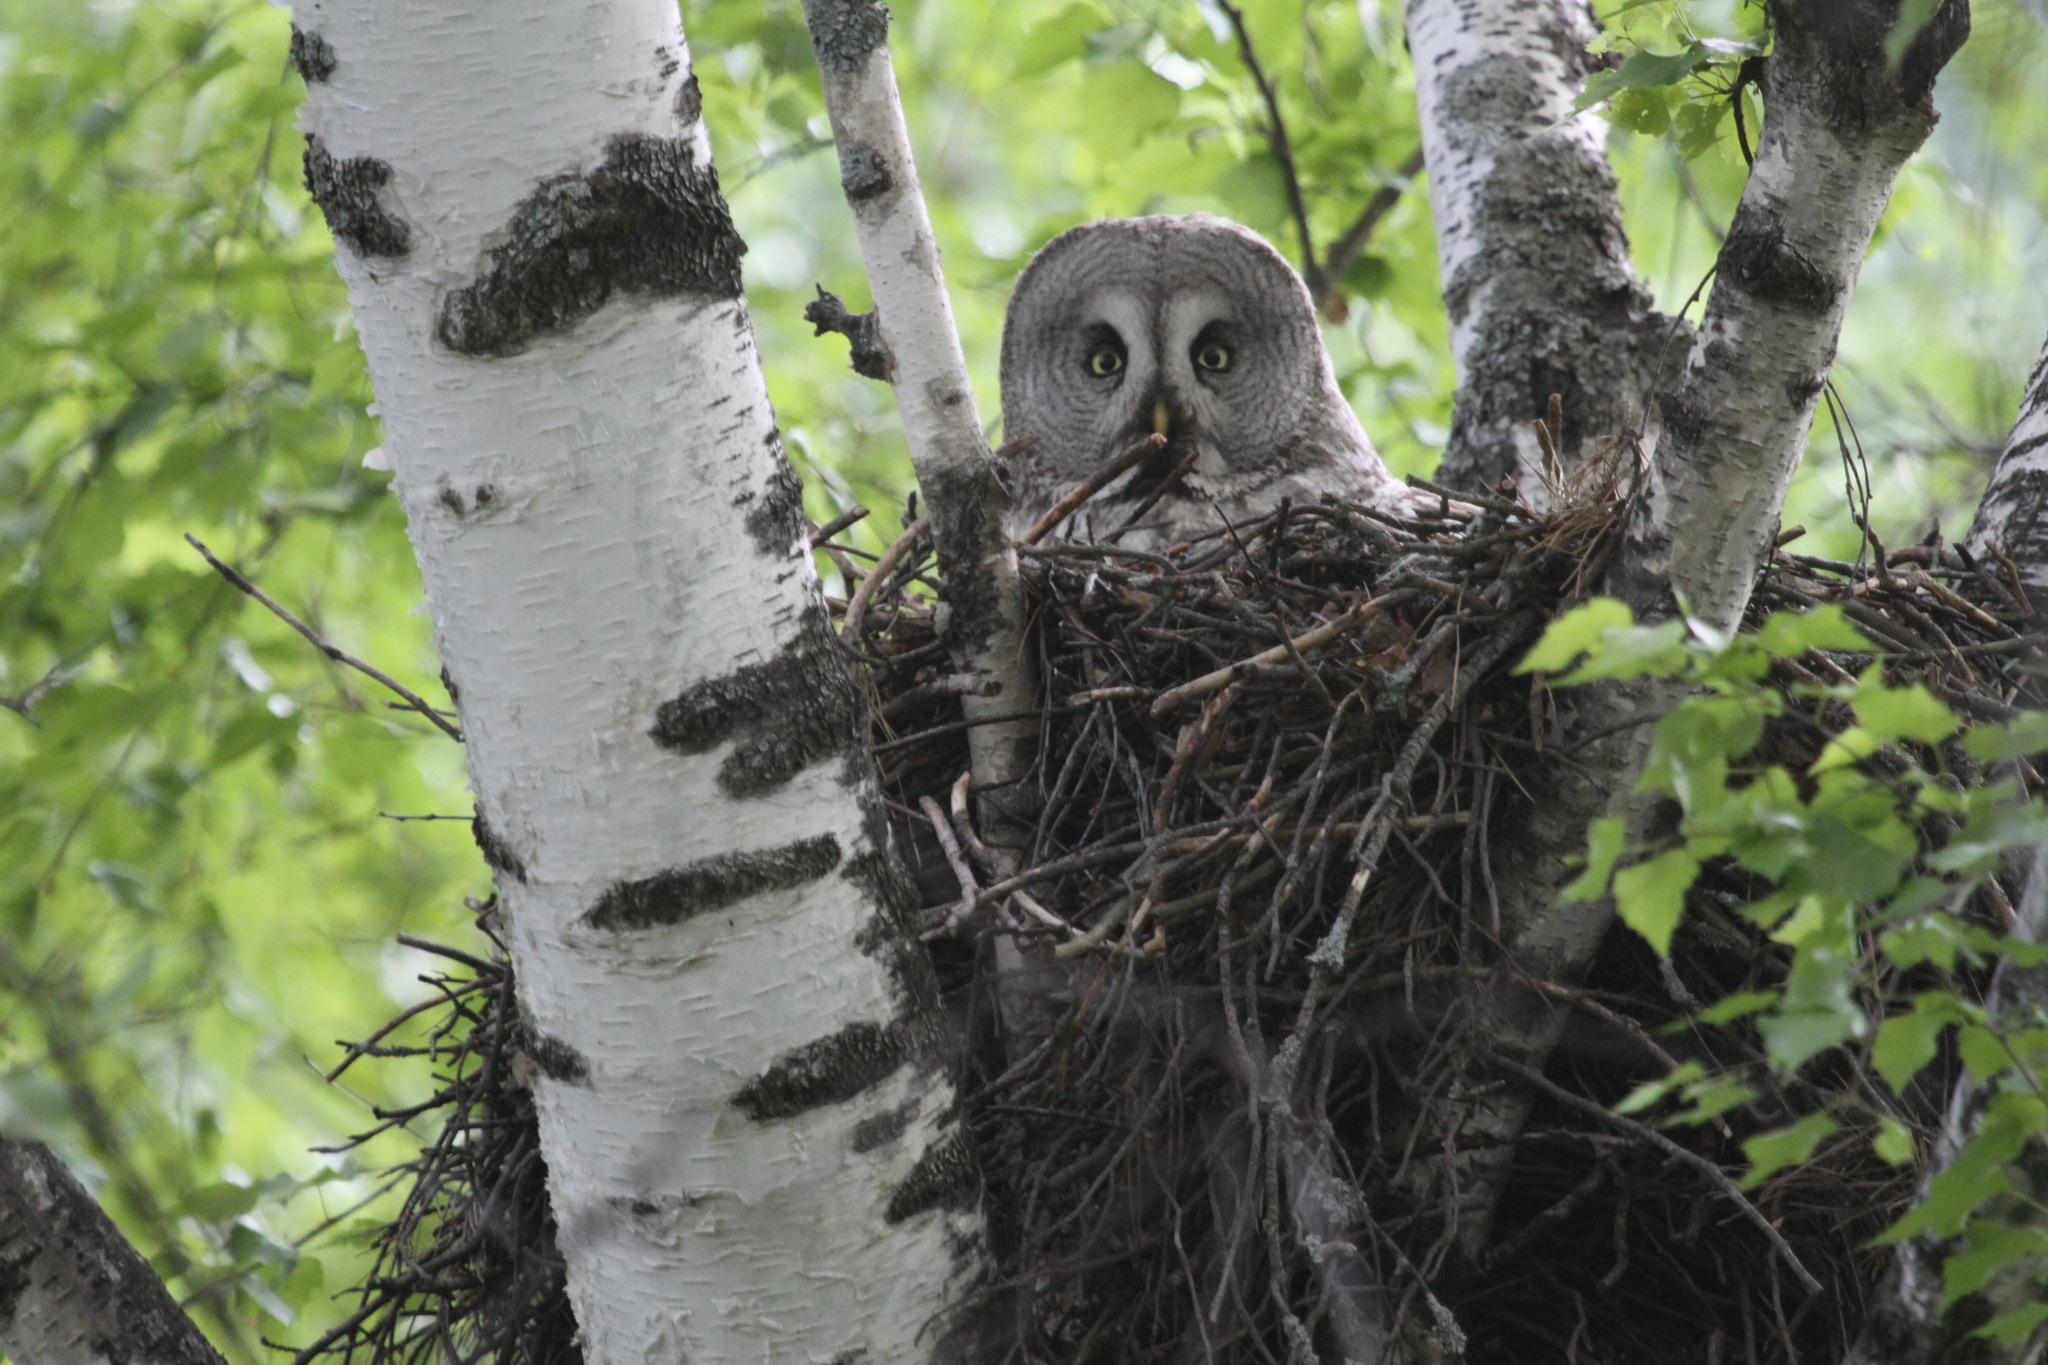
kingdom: Animalia
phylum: Chordata
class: Aves
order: Strigiformes
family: Strigidae
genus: Strix
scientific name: Strix nebulosa
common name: Great grey owl
